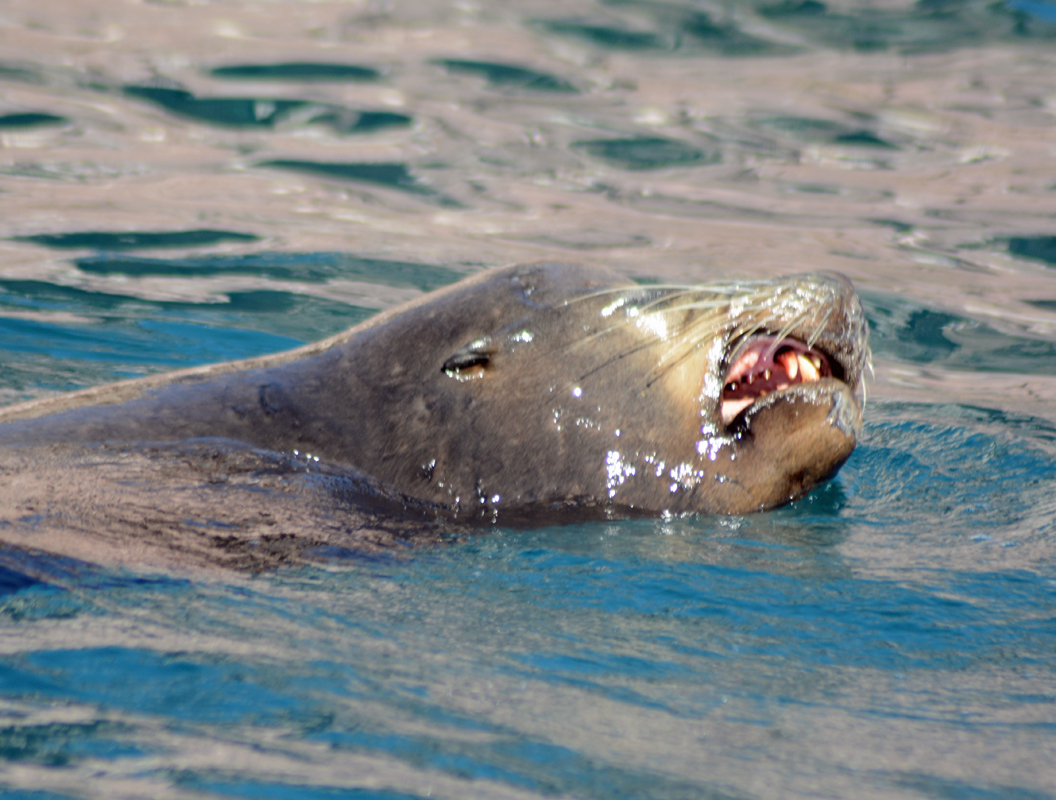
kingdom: Animalia
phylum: Chordata
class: Mammalia
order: Carnivora
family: Otariidae
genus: Zalophus
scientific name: Zalophus californianus
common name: California sea lion
